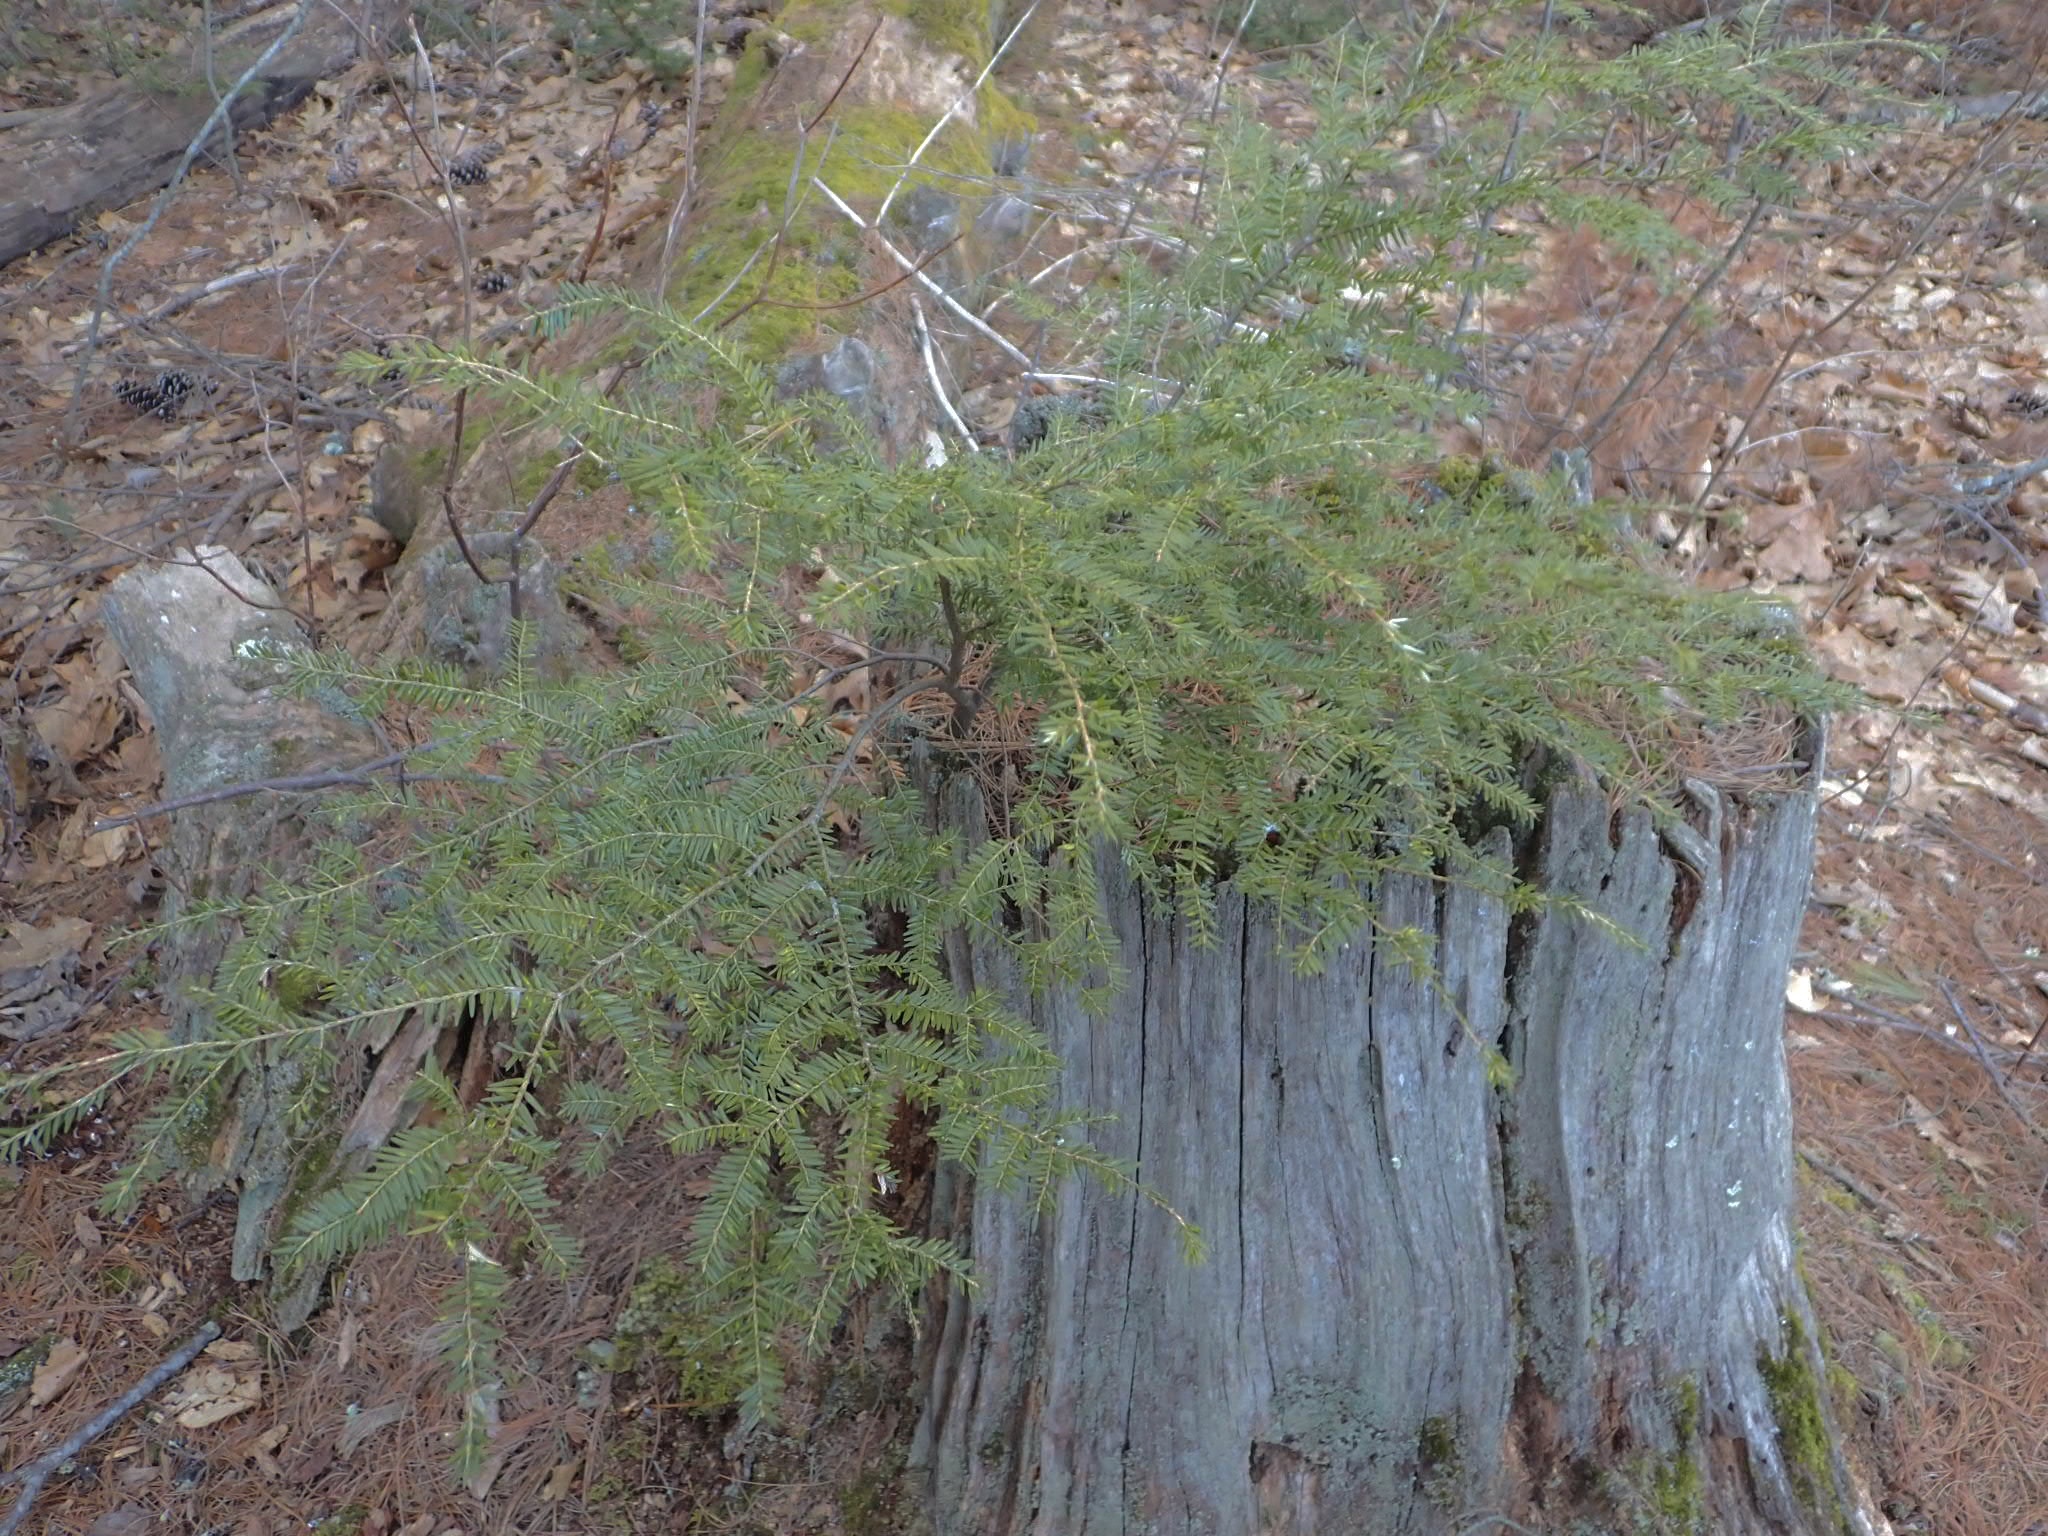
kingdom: Plantae
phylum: Tracheophyta
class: Pinopsida
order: Pinales
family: Pinaceae
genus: Tsuga
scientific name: Tsuga canadensis
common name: Eastern hemlock
